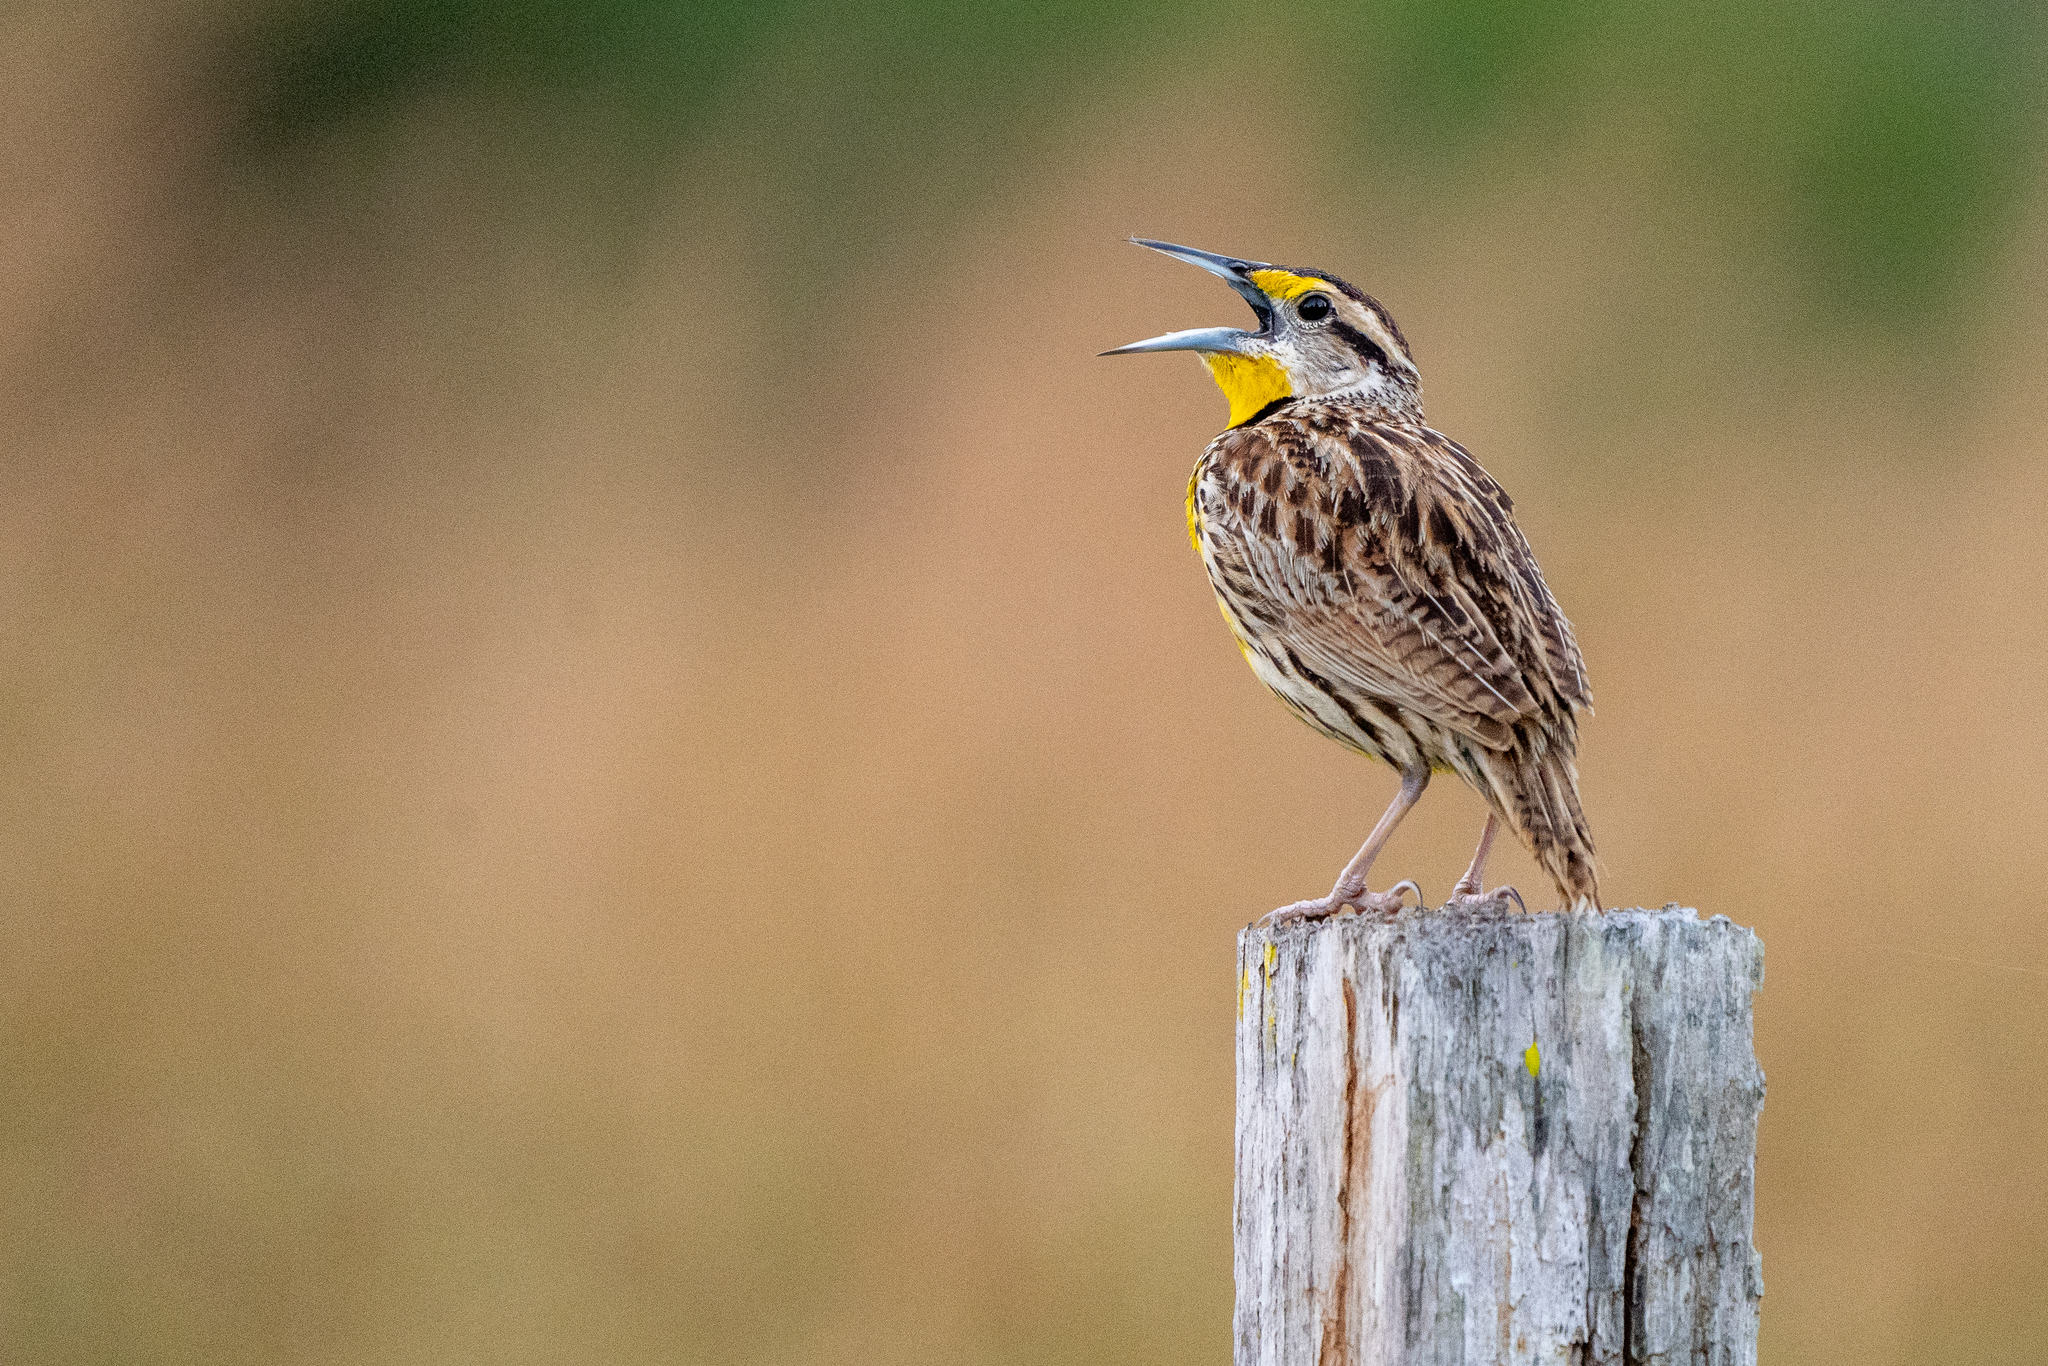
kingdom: Animalia
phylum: Chordata
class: Aves
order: Passeriformes
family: Icteridae
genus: Sturnella
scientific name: Sturnella magna
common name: Eastern meadowlark
